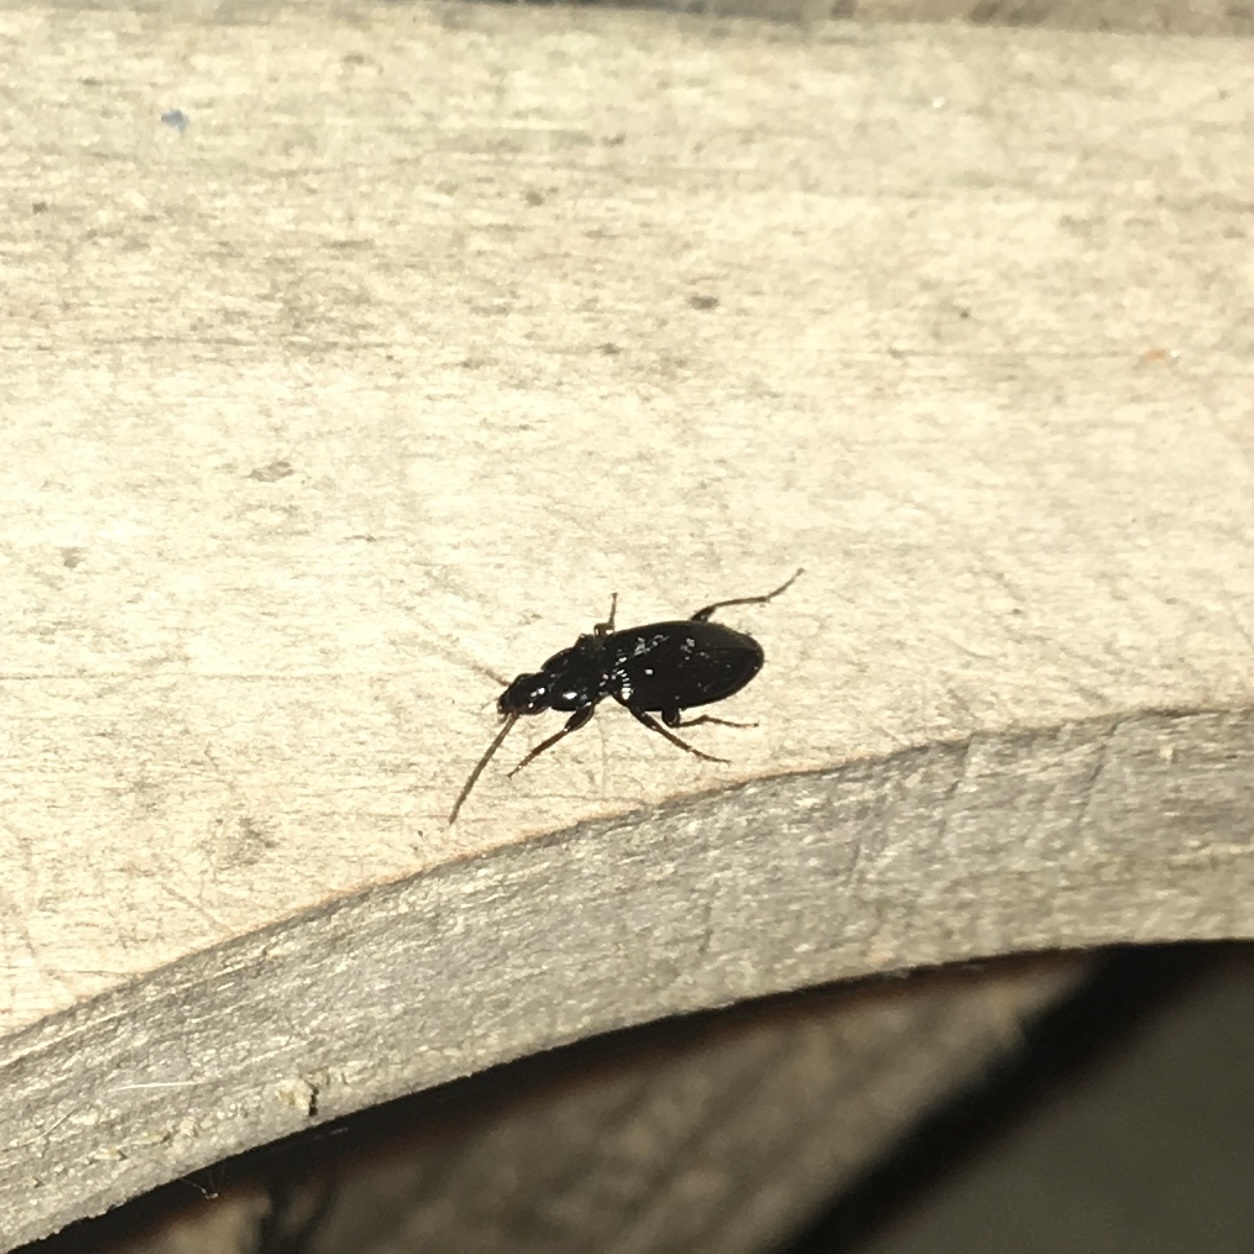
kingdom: Animalia
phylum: Arthropoda
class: Insecta
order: Coleoptera
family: Carabidae
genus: Agonum
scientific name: Agonum punctiforme
